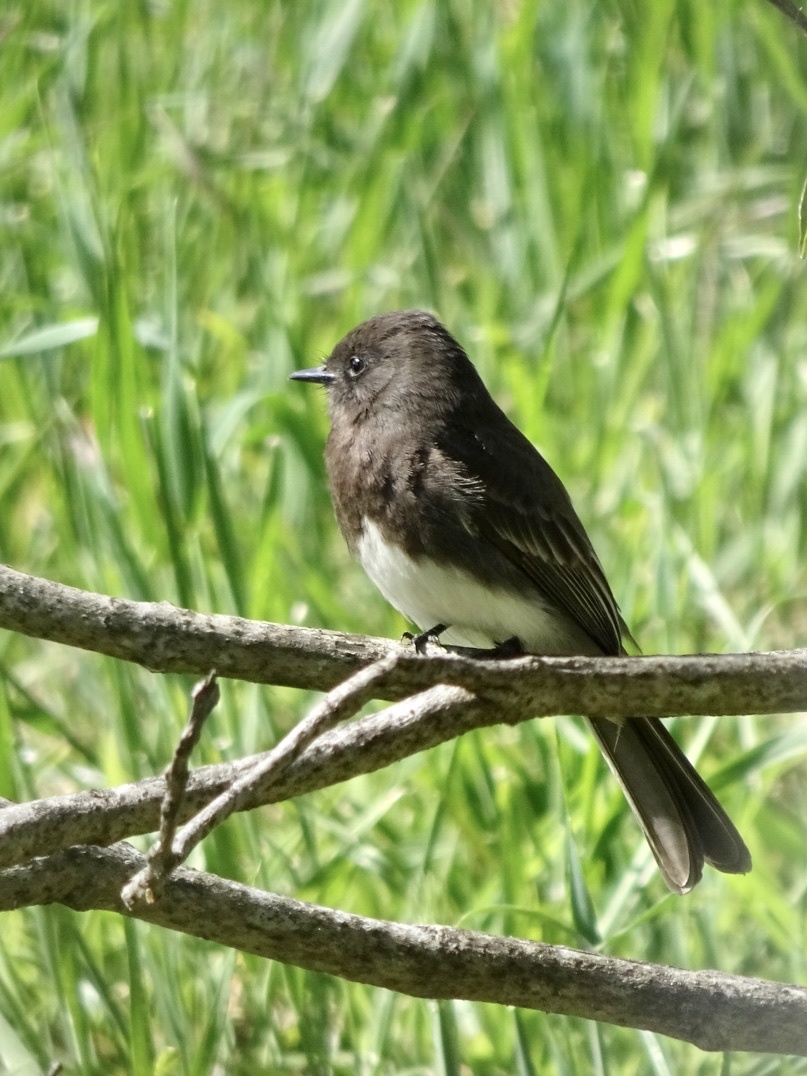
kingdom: Animalia
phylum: Chordata
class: Aves
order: Passeriformes
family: Tyrannidae
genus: Sayornis
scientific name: Sayornis nigricans
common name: Black phoebe
